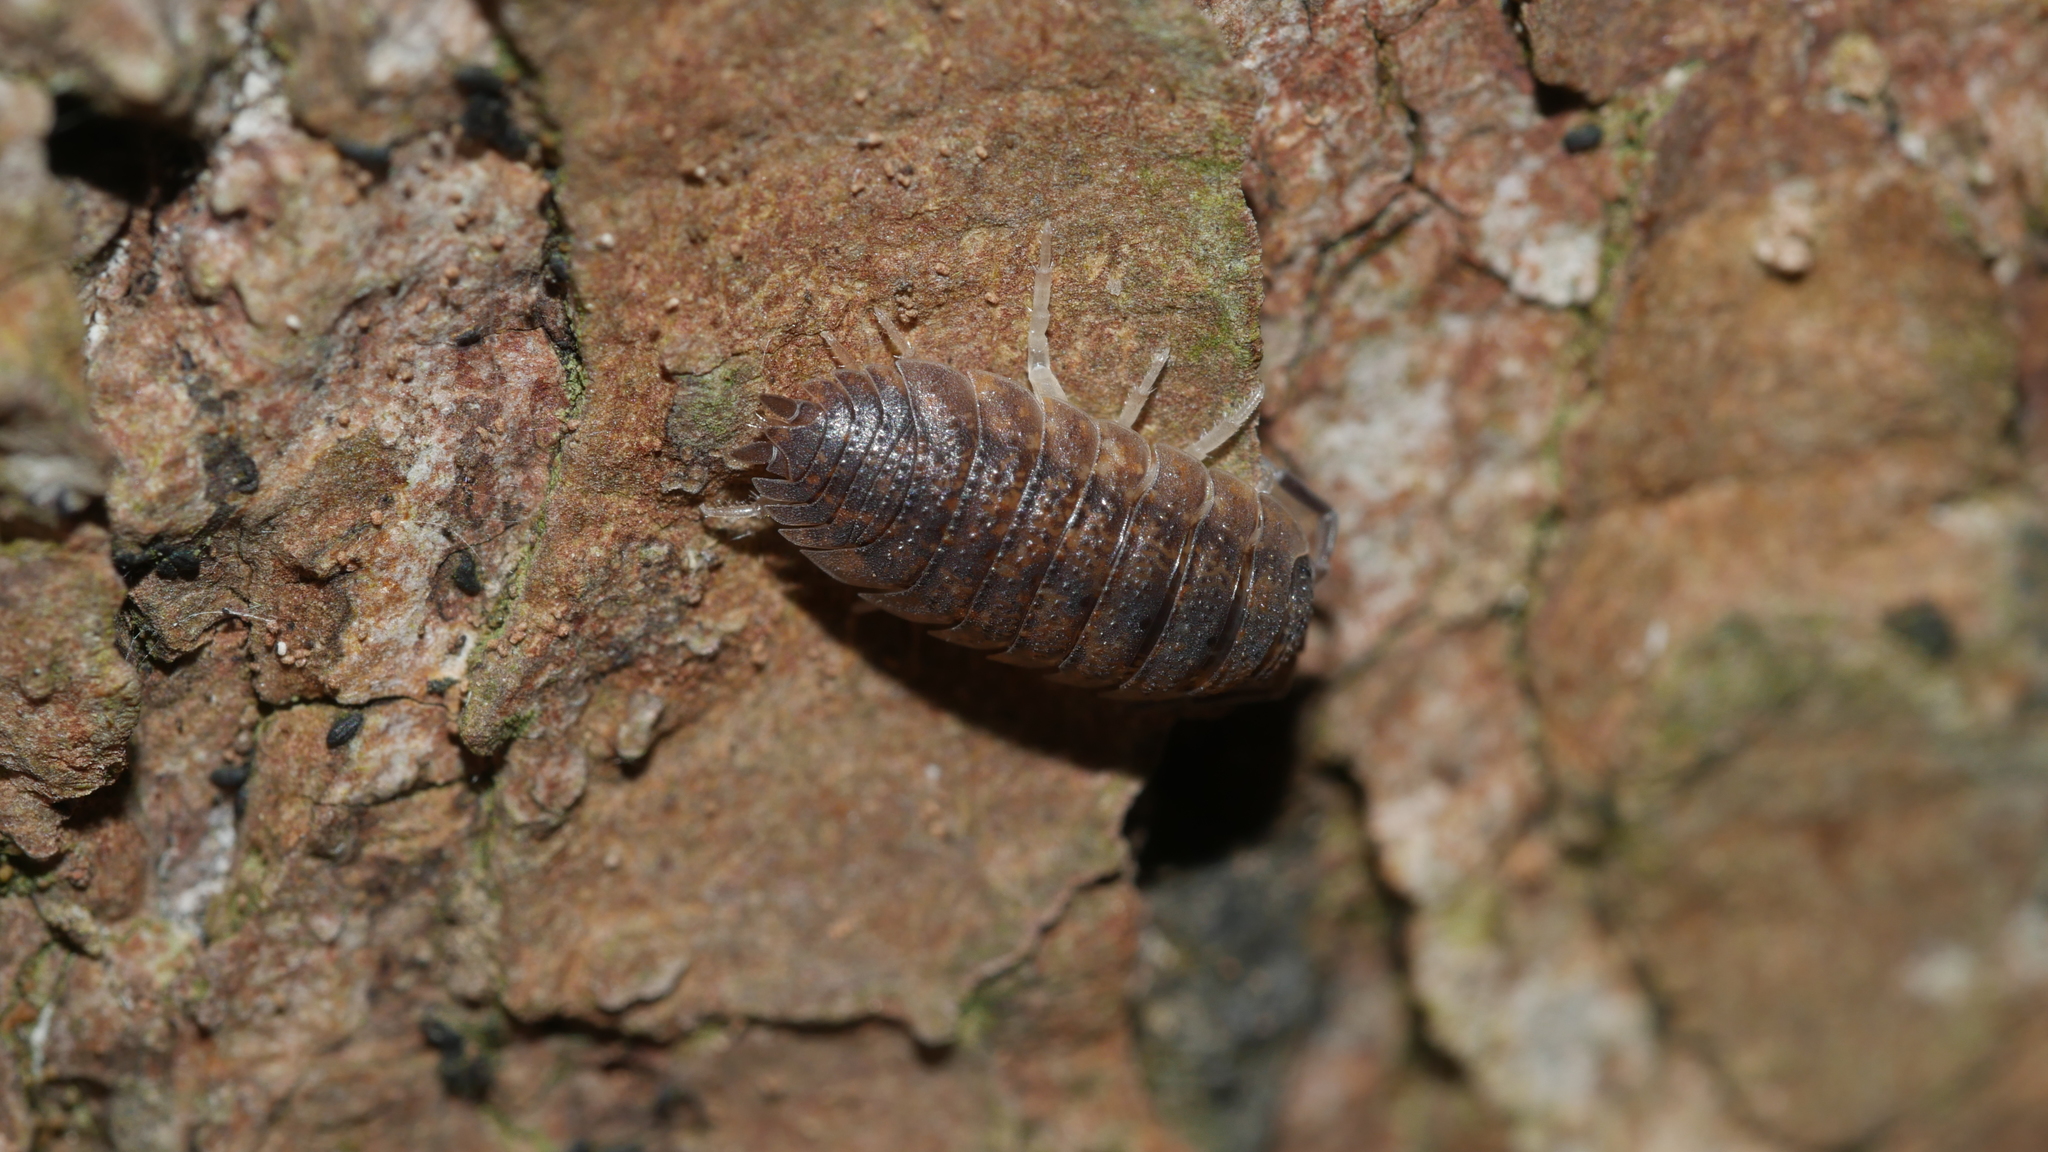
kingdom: Animalia
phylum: Arthropoda
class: Malacostraca
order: Isopoda
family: Porcellionidae
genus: Porcellio
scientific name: Porcellio scaber
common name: Common rough woodlouse
